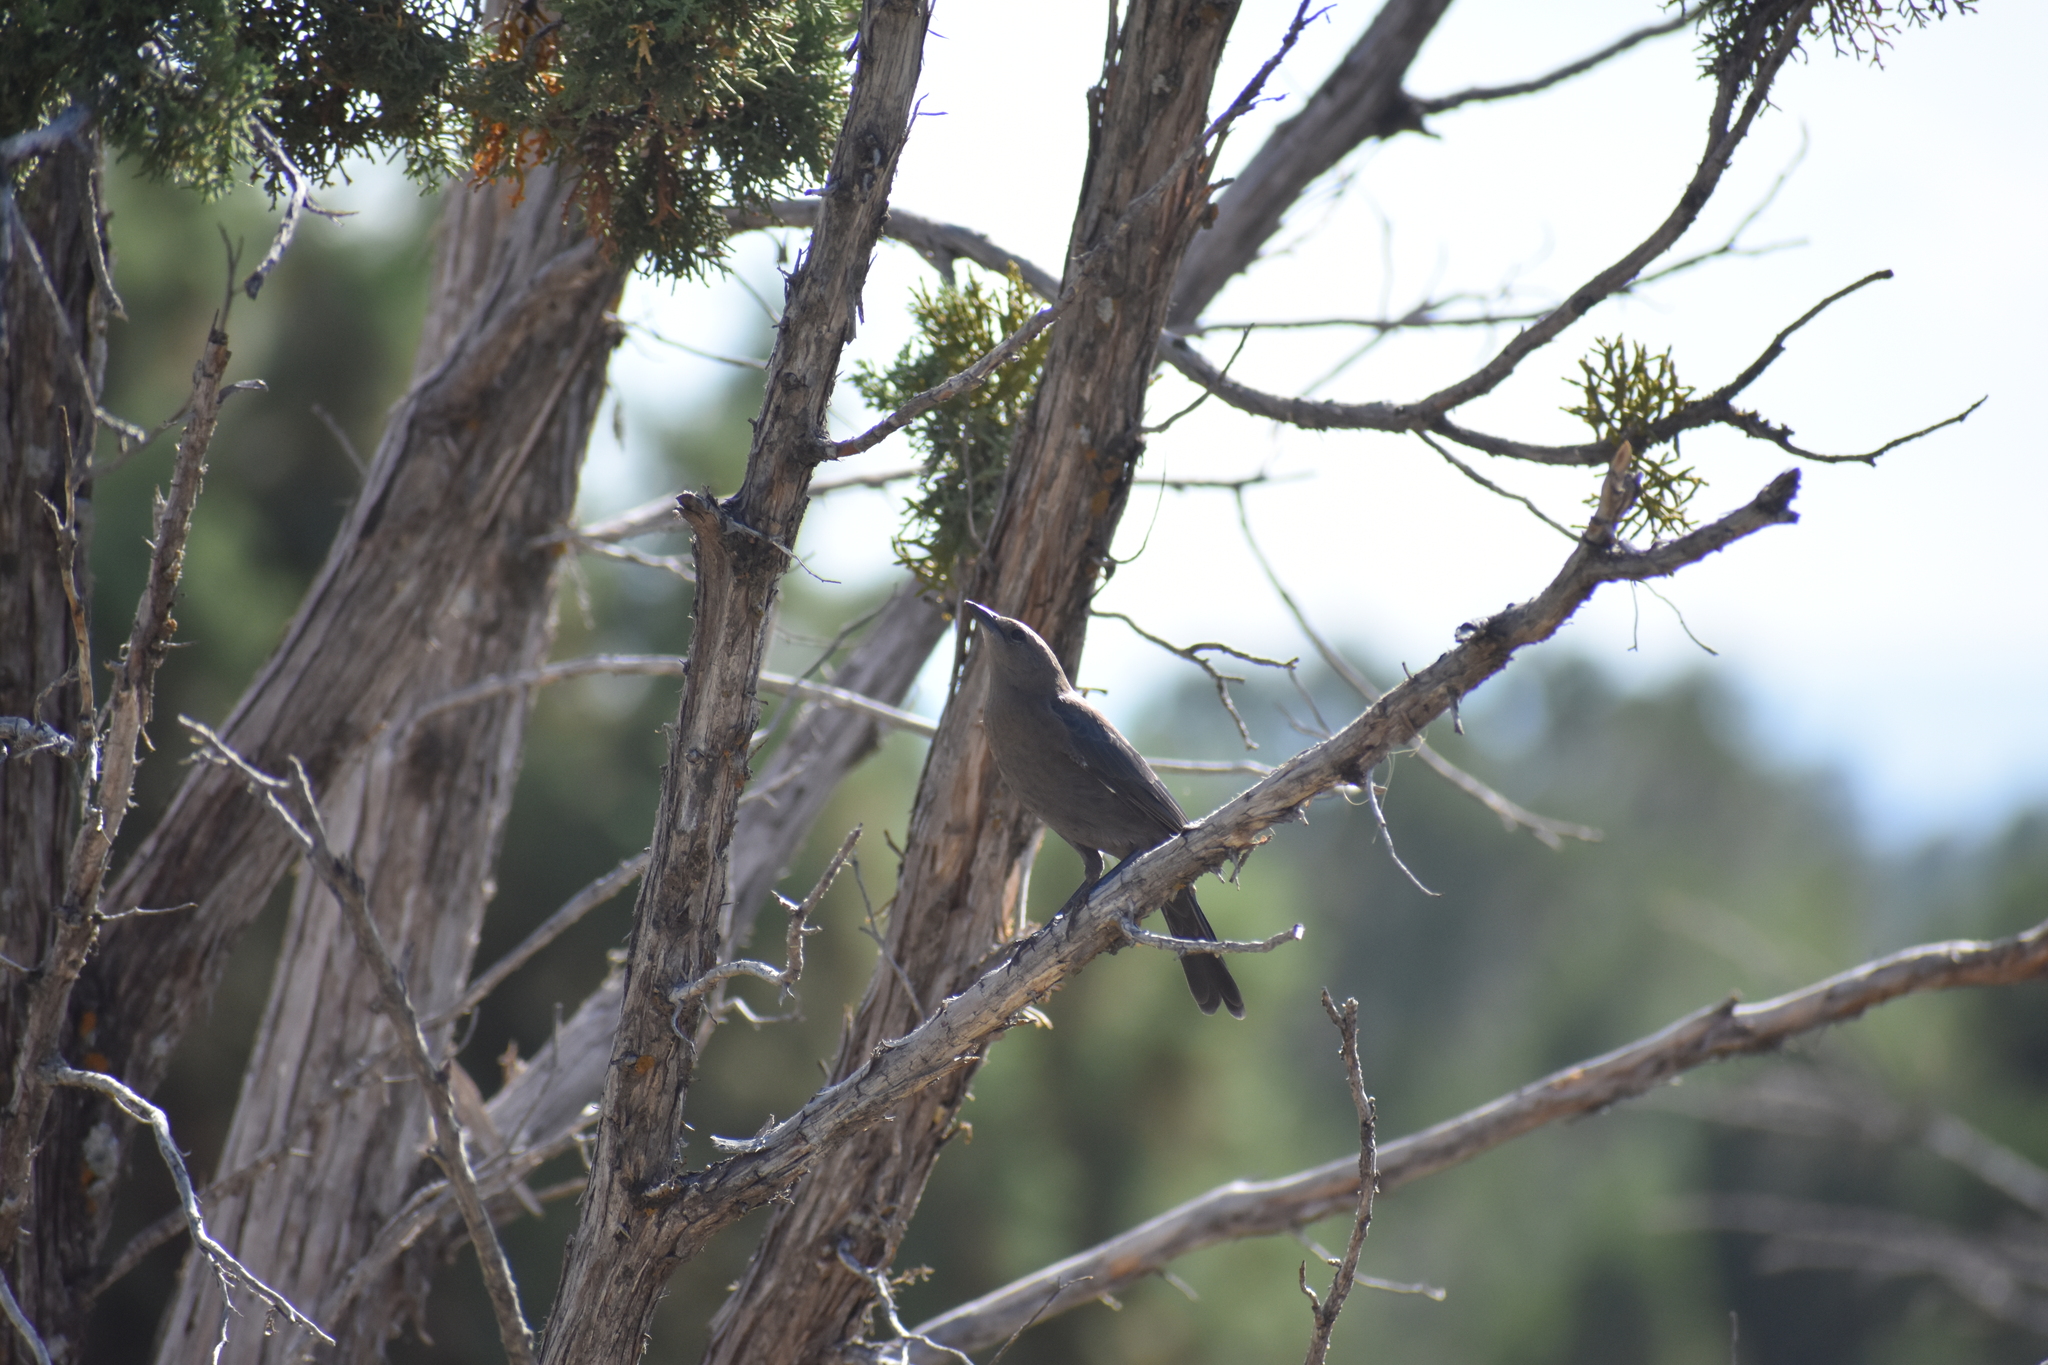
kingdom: Animalia
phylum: Chordata
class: Aves
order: Passeriformes
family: Icteridae
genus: Euphagus
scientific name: Euphagus cyanocephalus
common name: Brewer's blackbird
